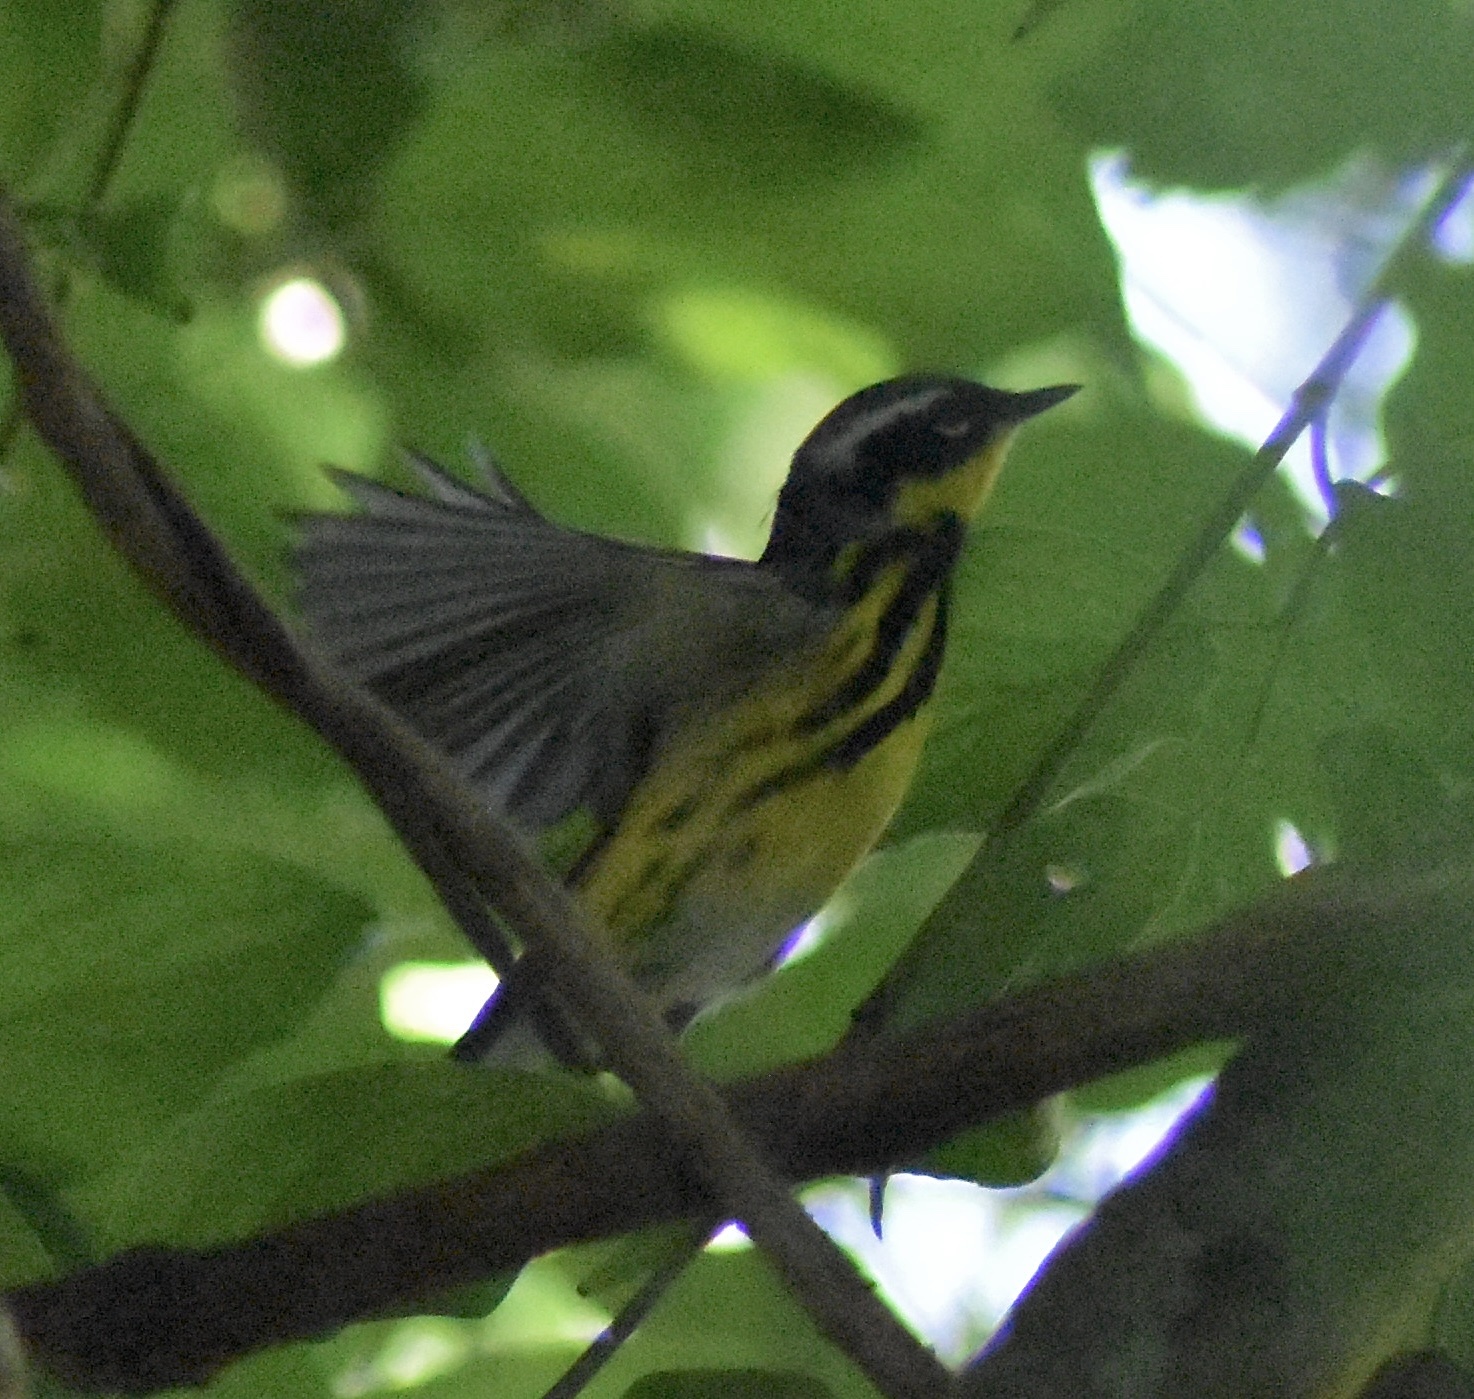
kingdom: Animalia
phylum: Chordata
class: Aves
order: Passeriformes
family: Parulidae
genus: Setophaga
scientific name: Setophaga magnolia
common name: Magnolia warbler
